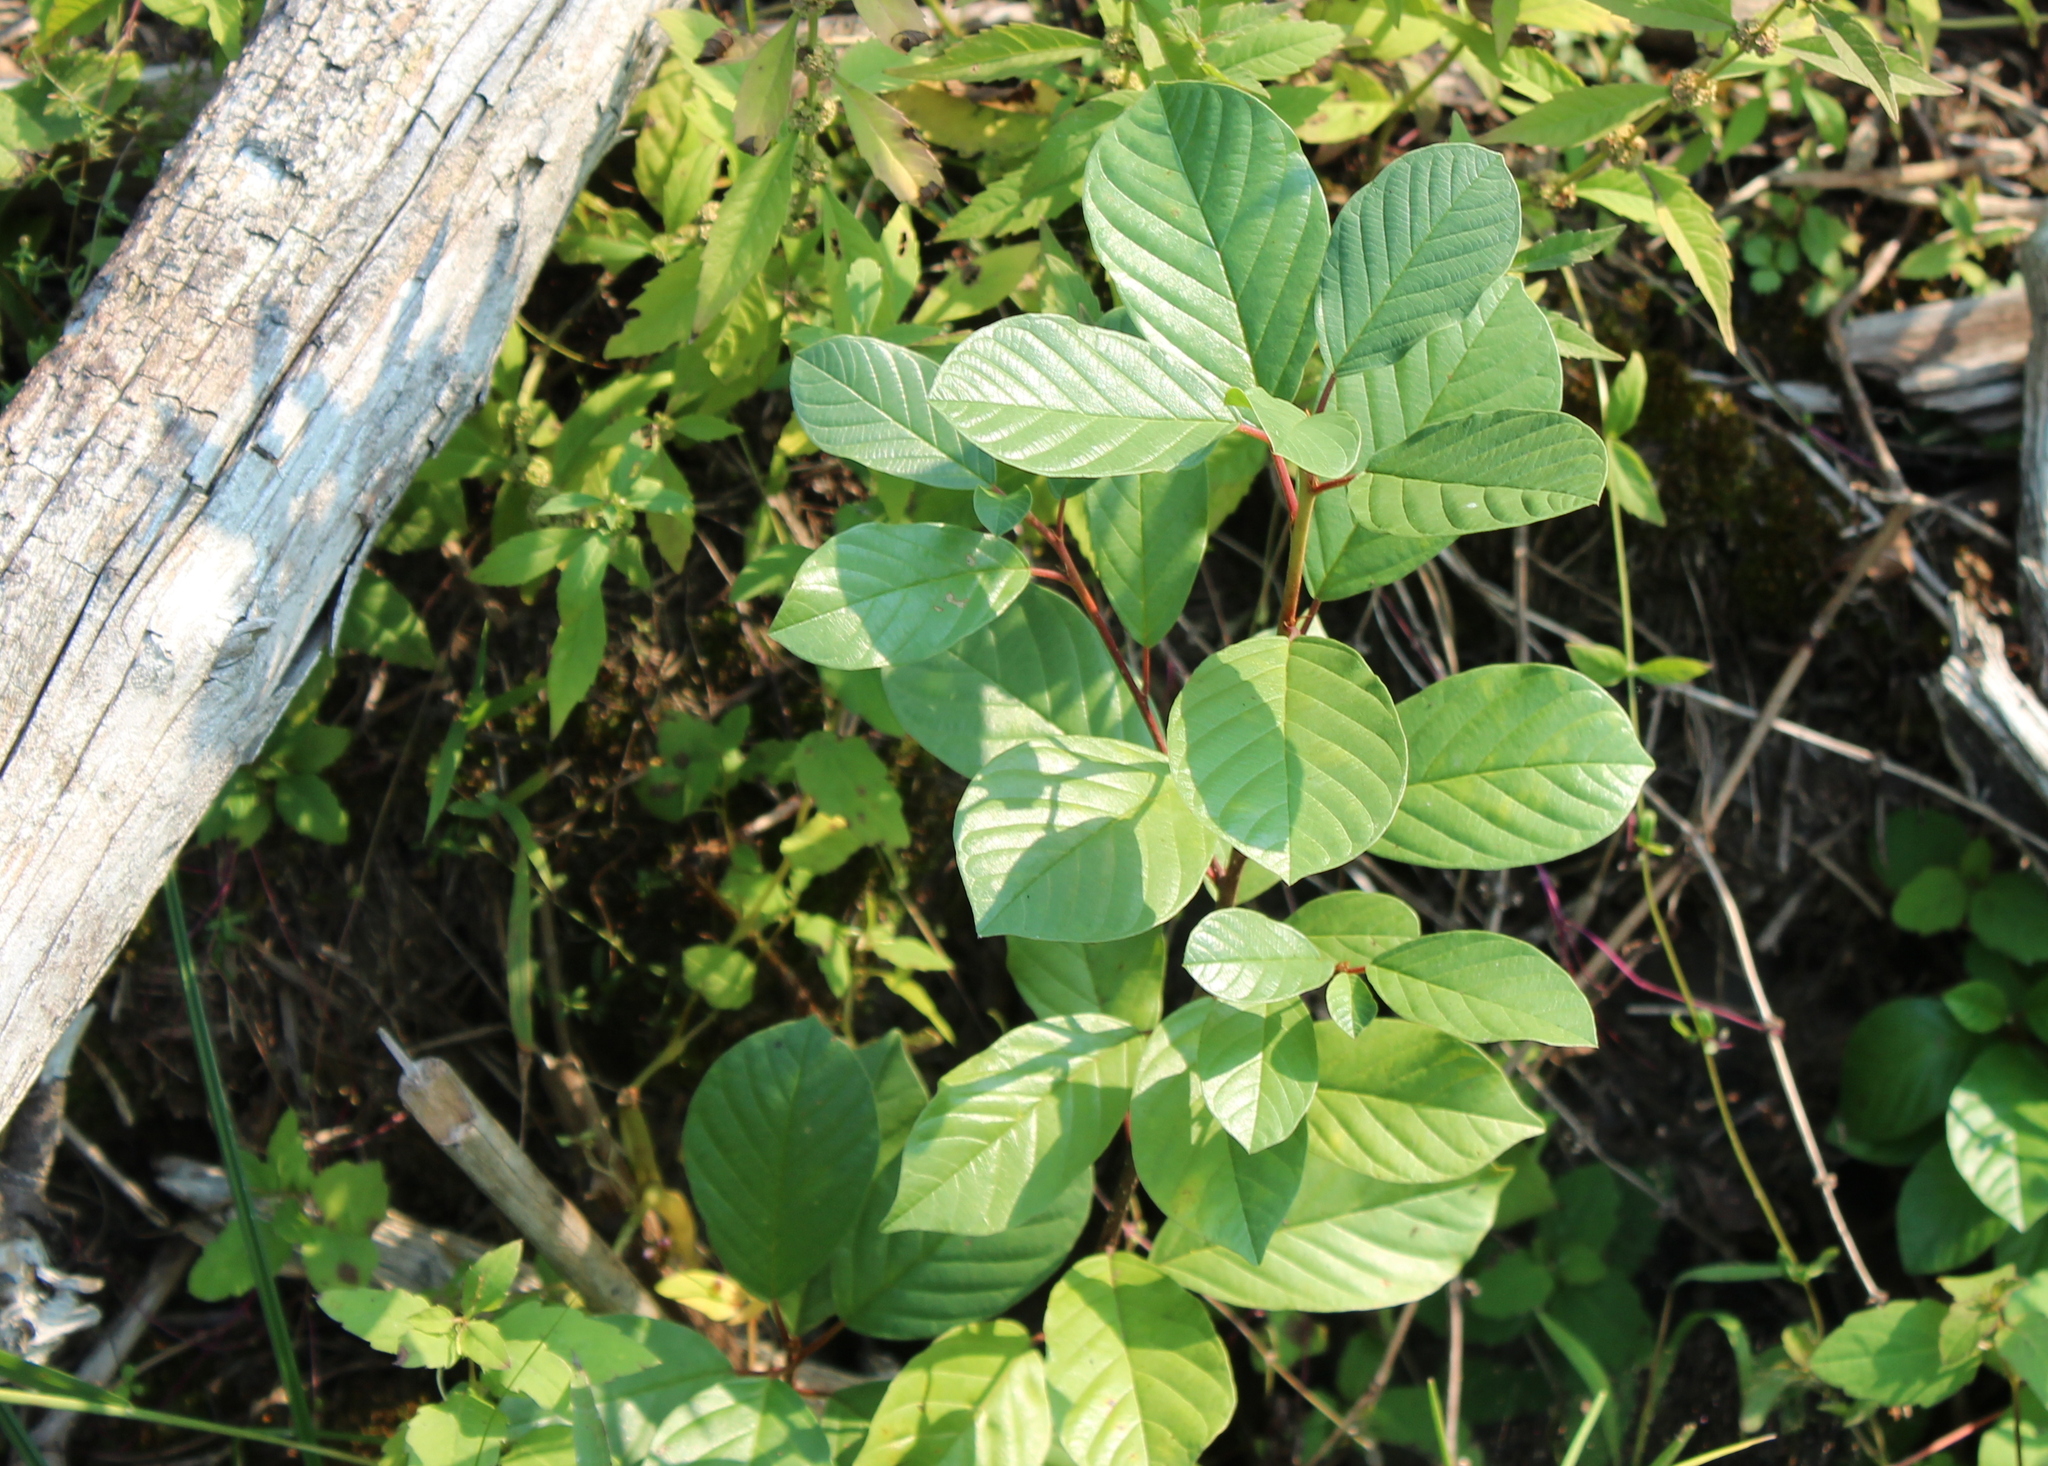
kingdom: Plantae
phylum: Tracheophyta
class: Magnoliopsida
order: Rosales
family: Rhamnaceae
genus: Frangula
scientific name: Frangula alnus
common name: Alder buckthorn
